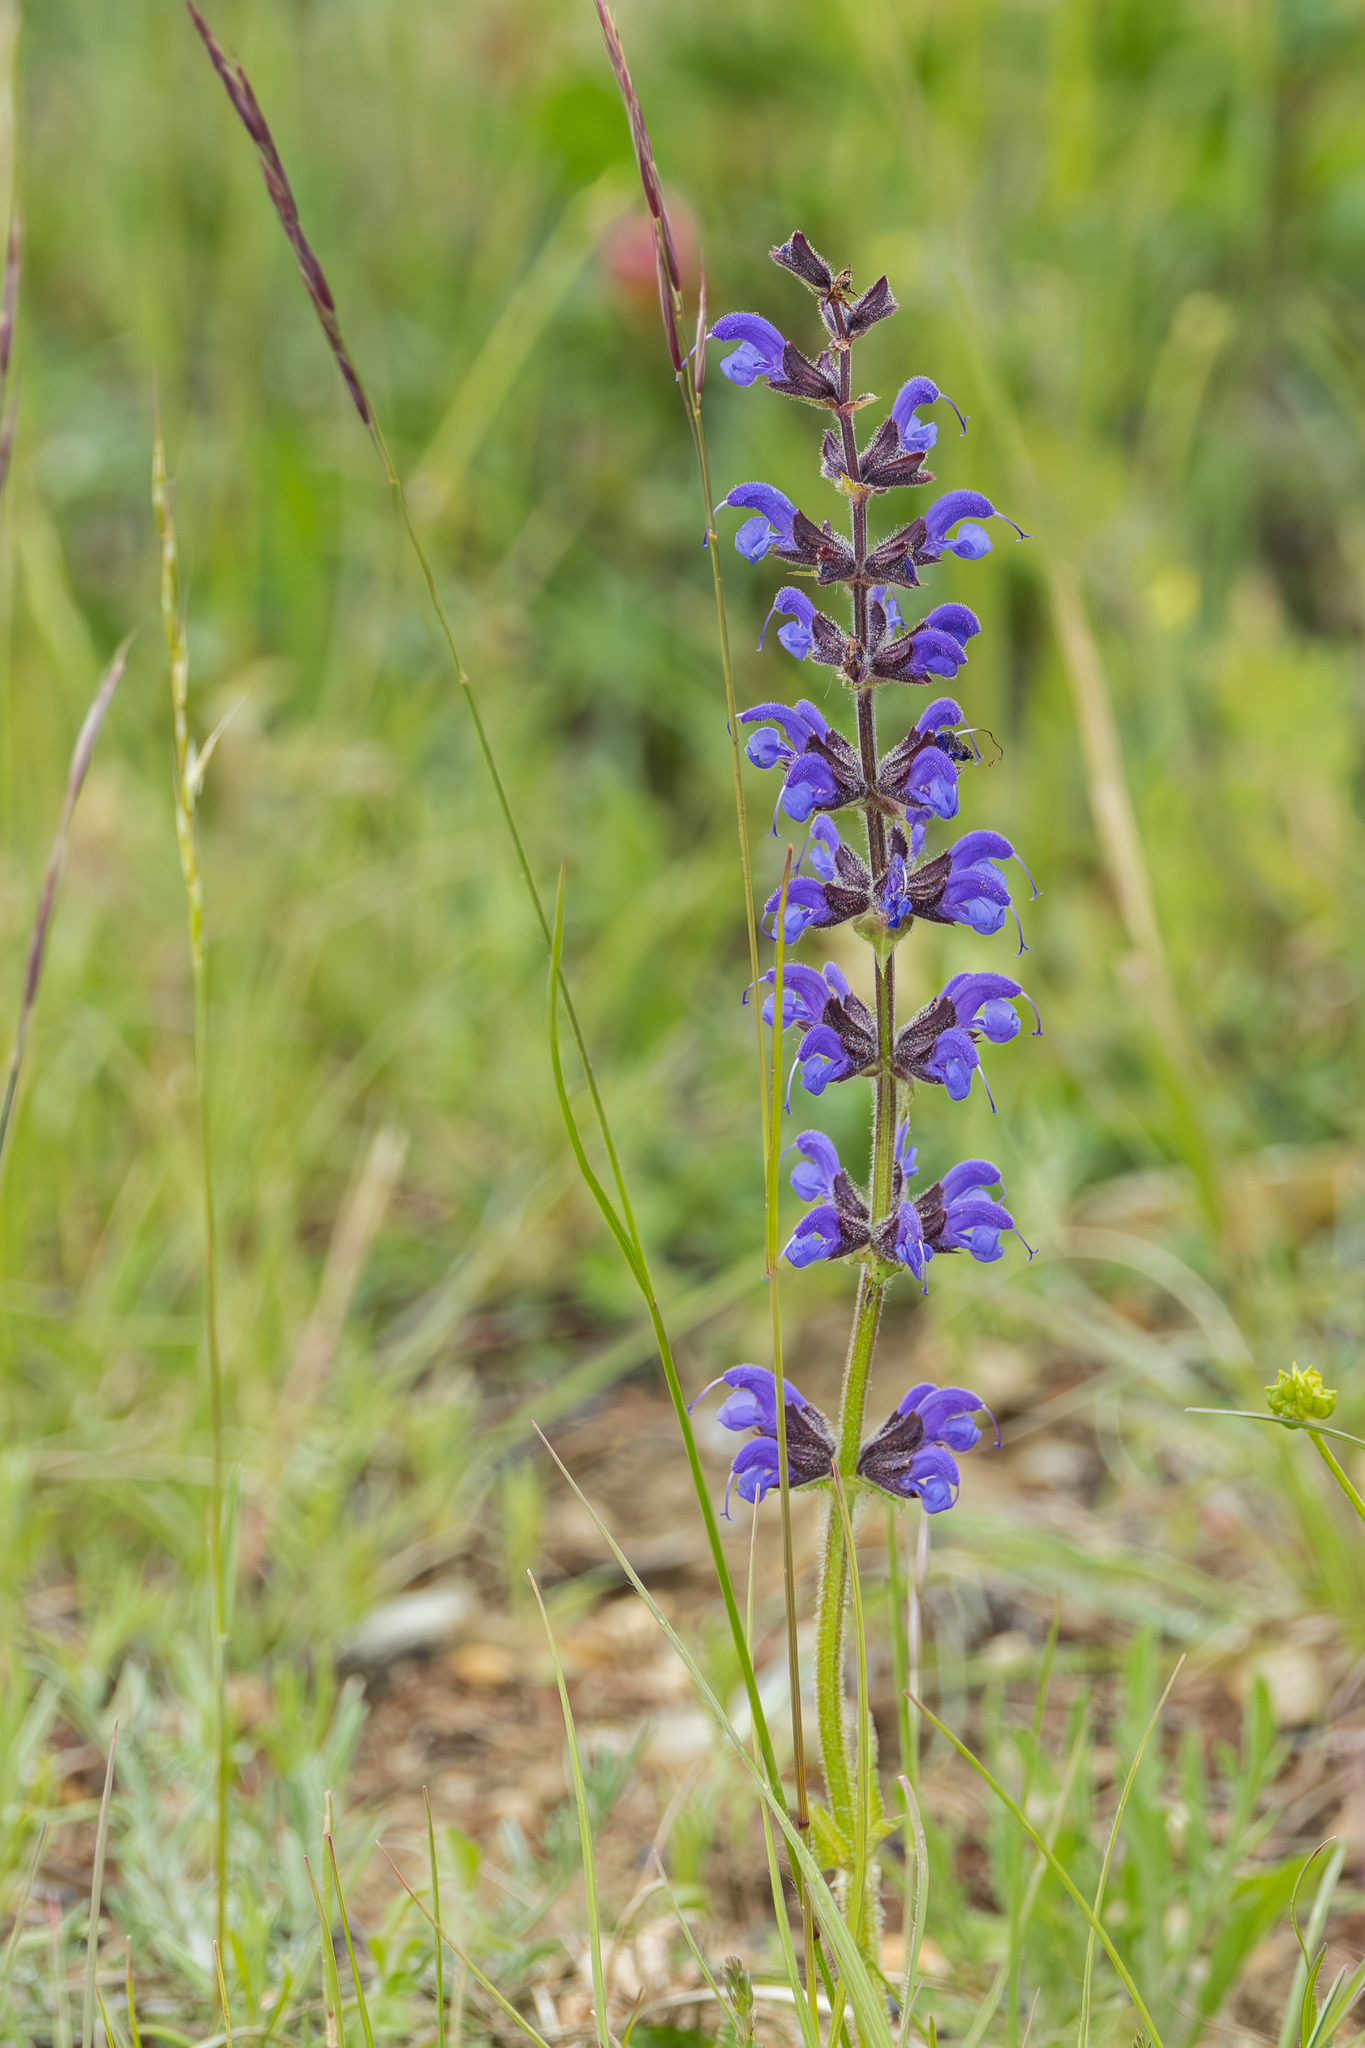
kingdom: Plantae
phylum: Tracheophyta
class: Magnoliopsida
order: Lamiales
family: Lamiaceae
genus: Salvia
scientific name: Salvia pratensis
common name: Meadow sage
